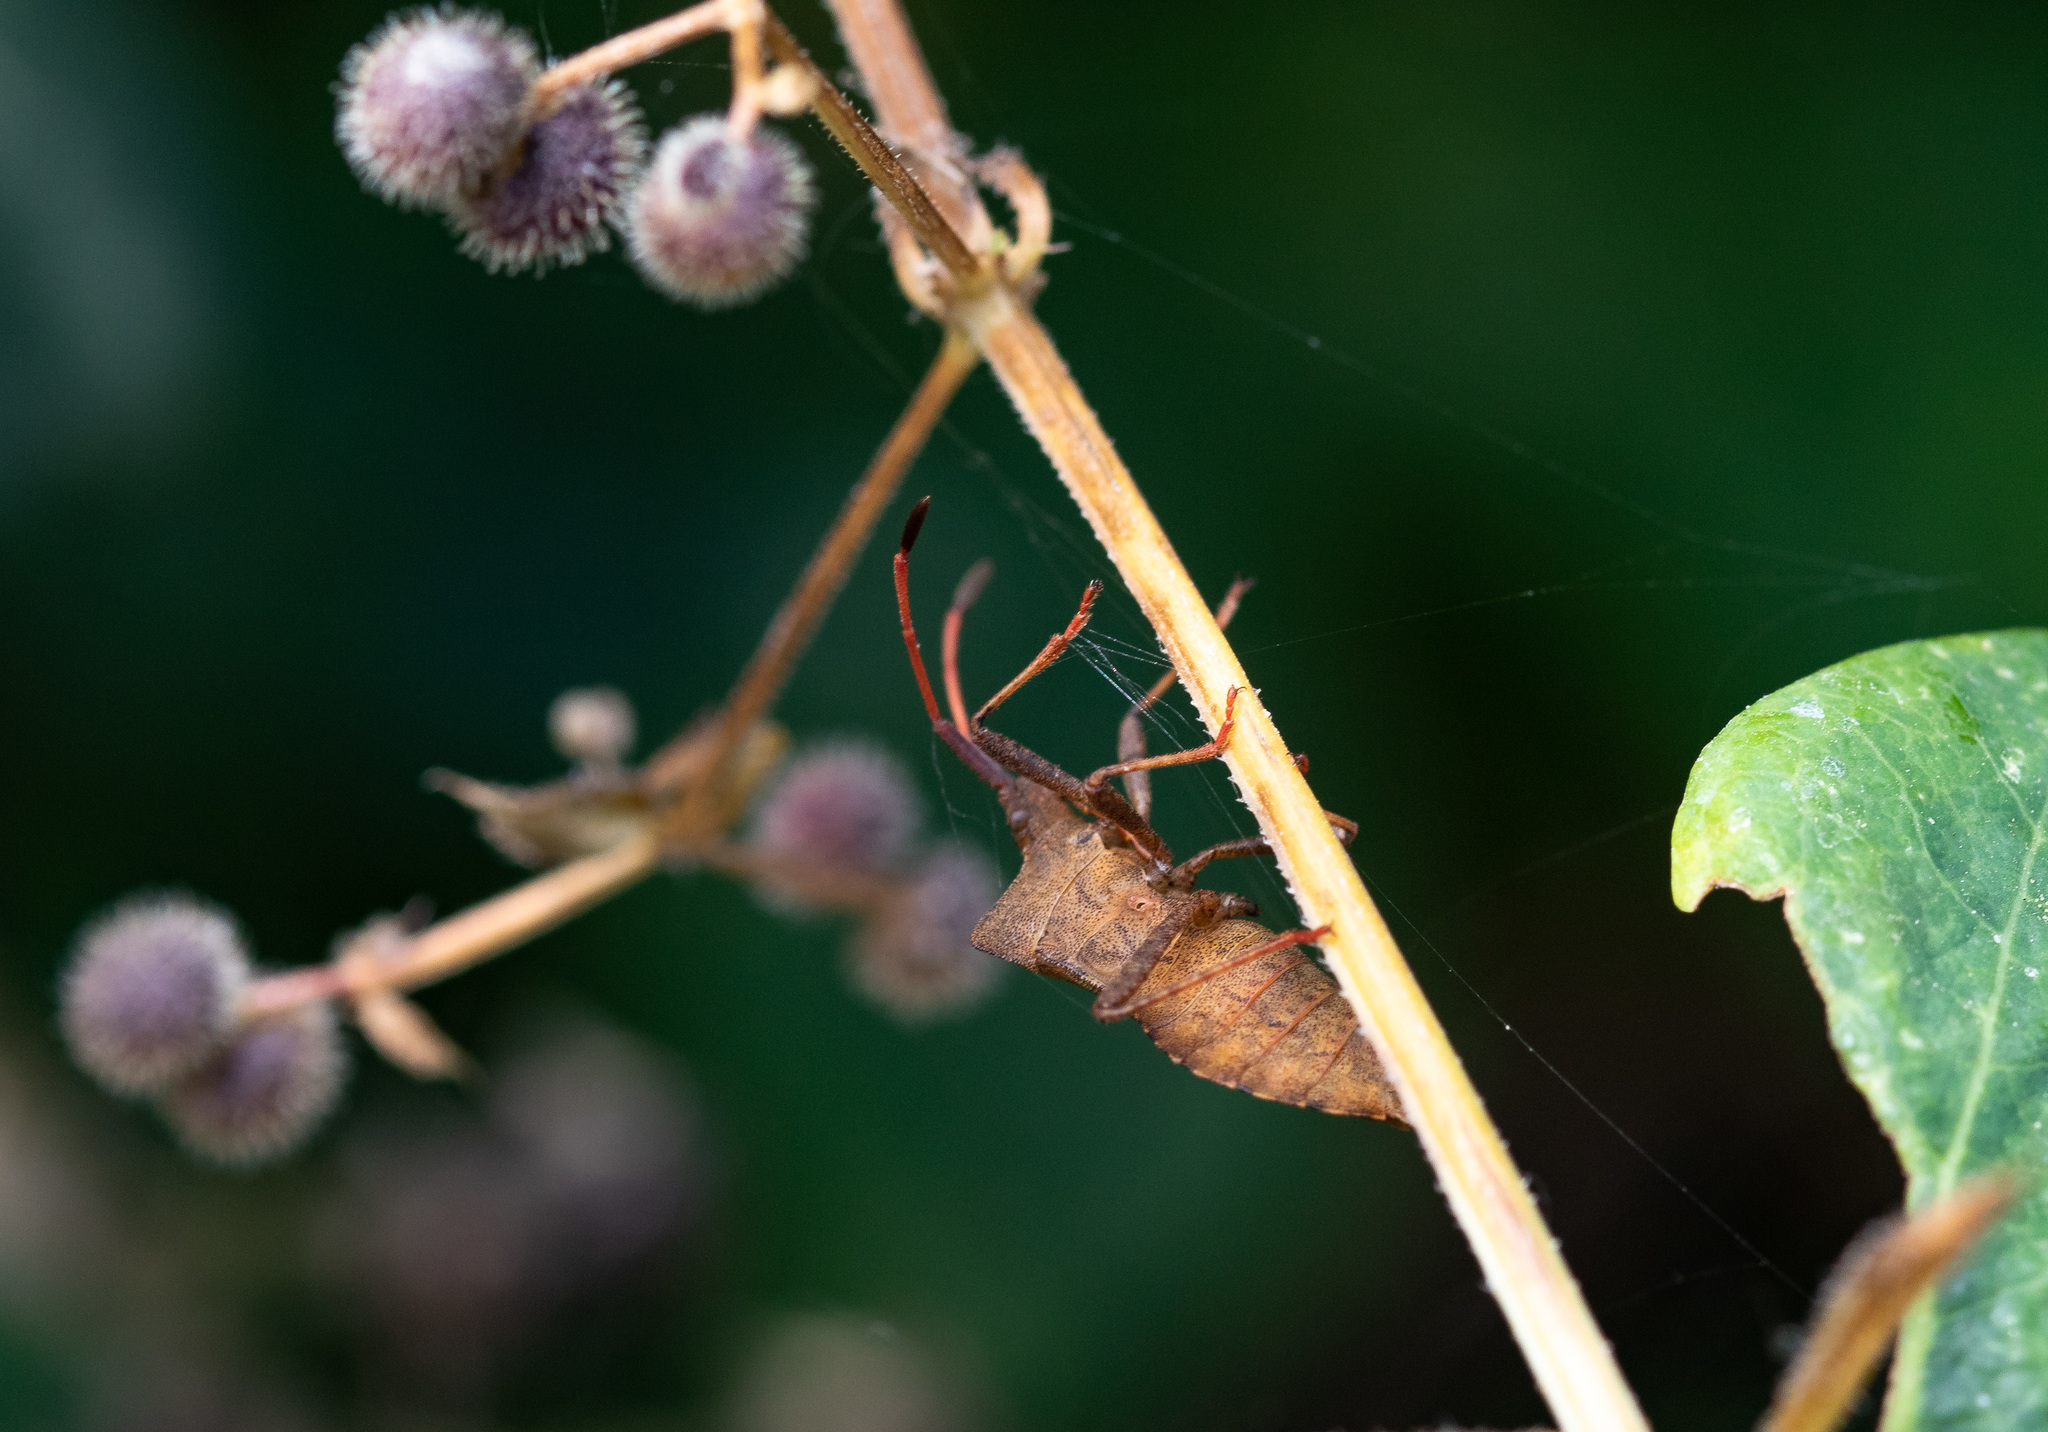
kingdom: Animalia
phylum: Arthropoda
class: Insecta
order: Hemiptera
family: Coreidae
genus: Coreus
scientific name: Coreus marginatus
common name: Dock bug
